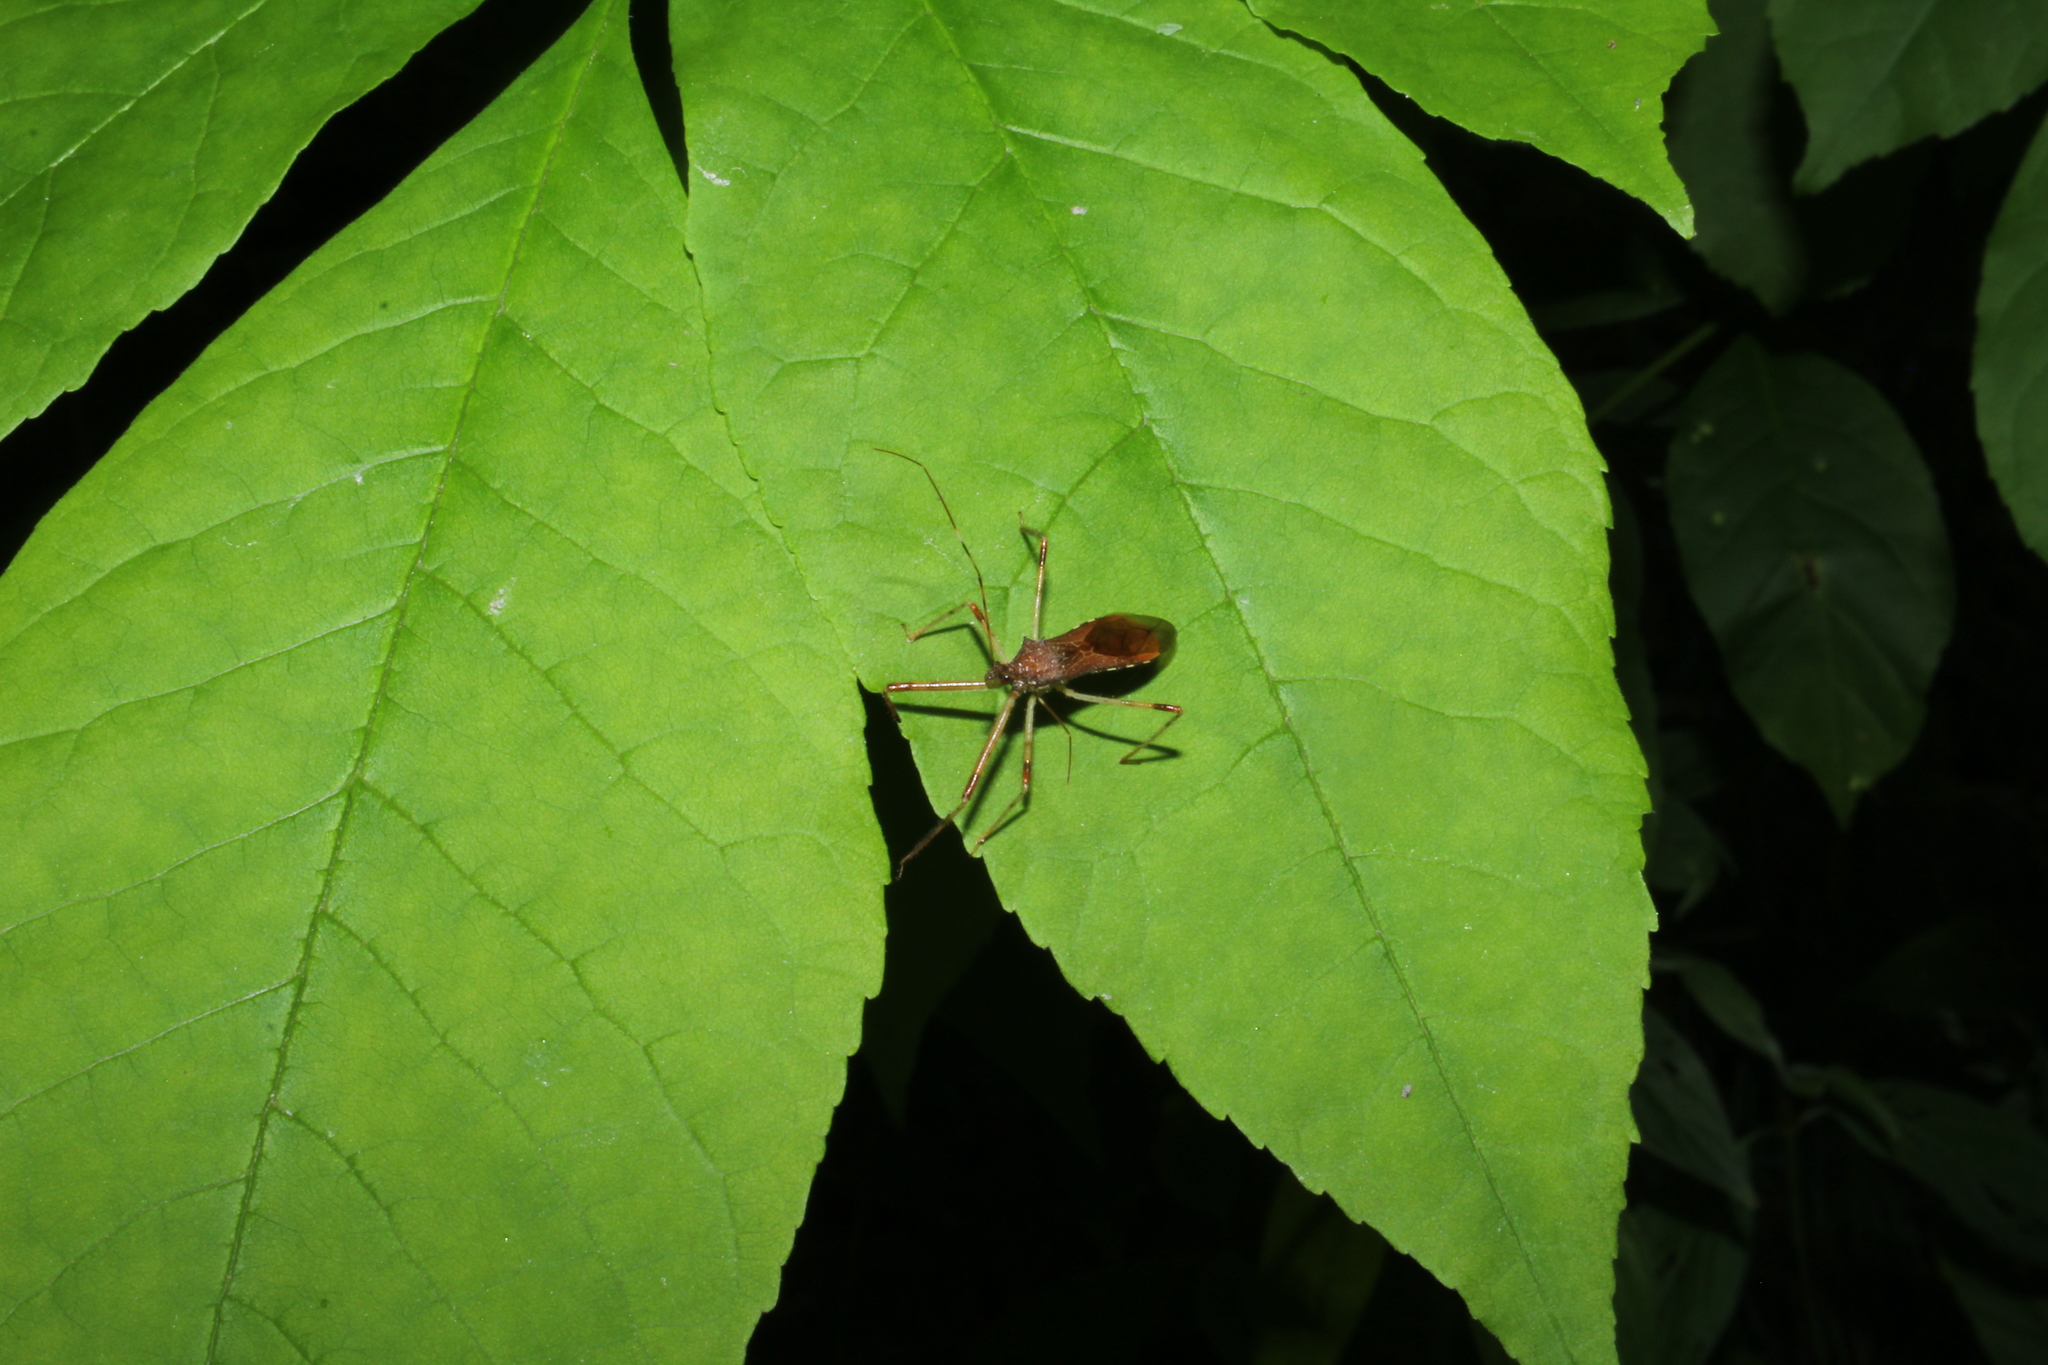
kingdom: Animalia
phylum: Arthropoda
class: Insecta
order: Hemiptera
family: Reduviidae
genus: Rocconota
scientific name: Rocconota annulicornis
